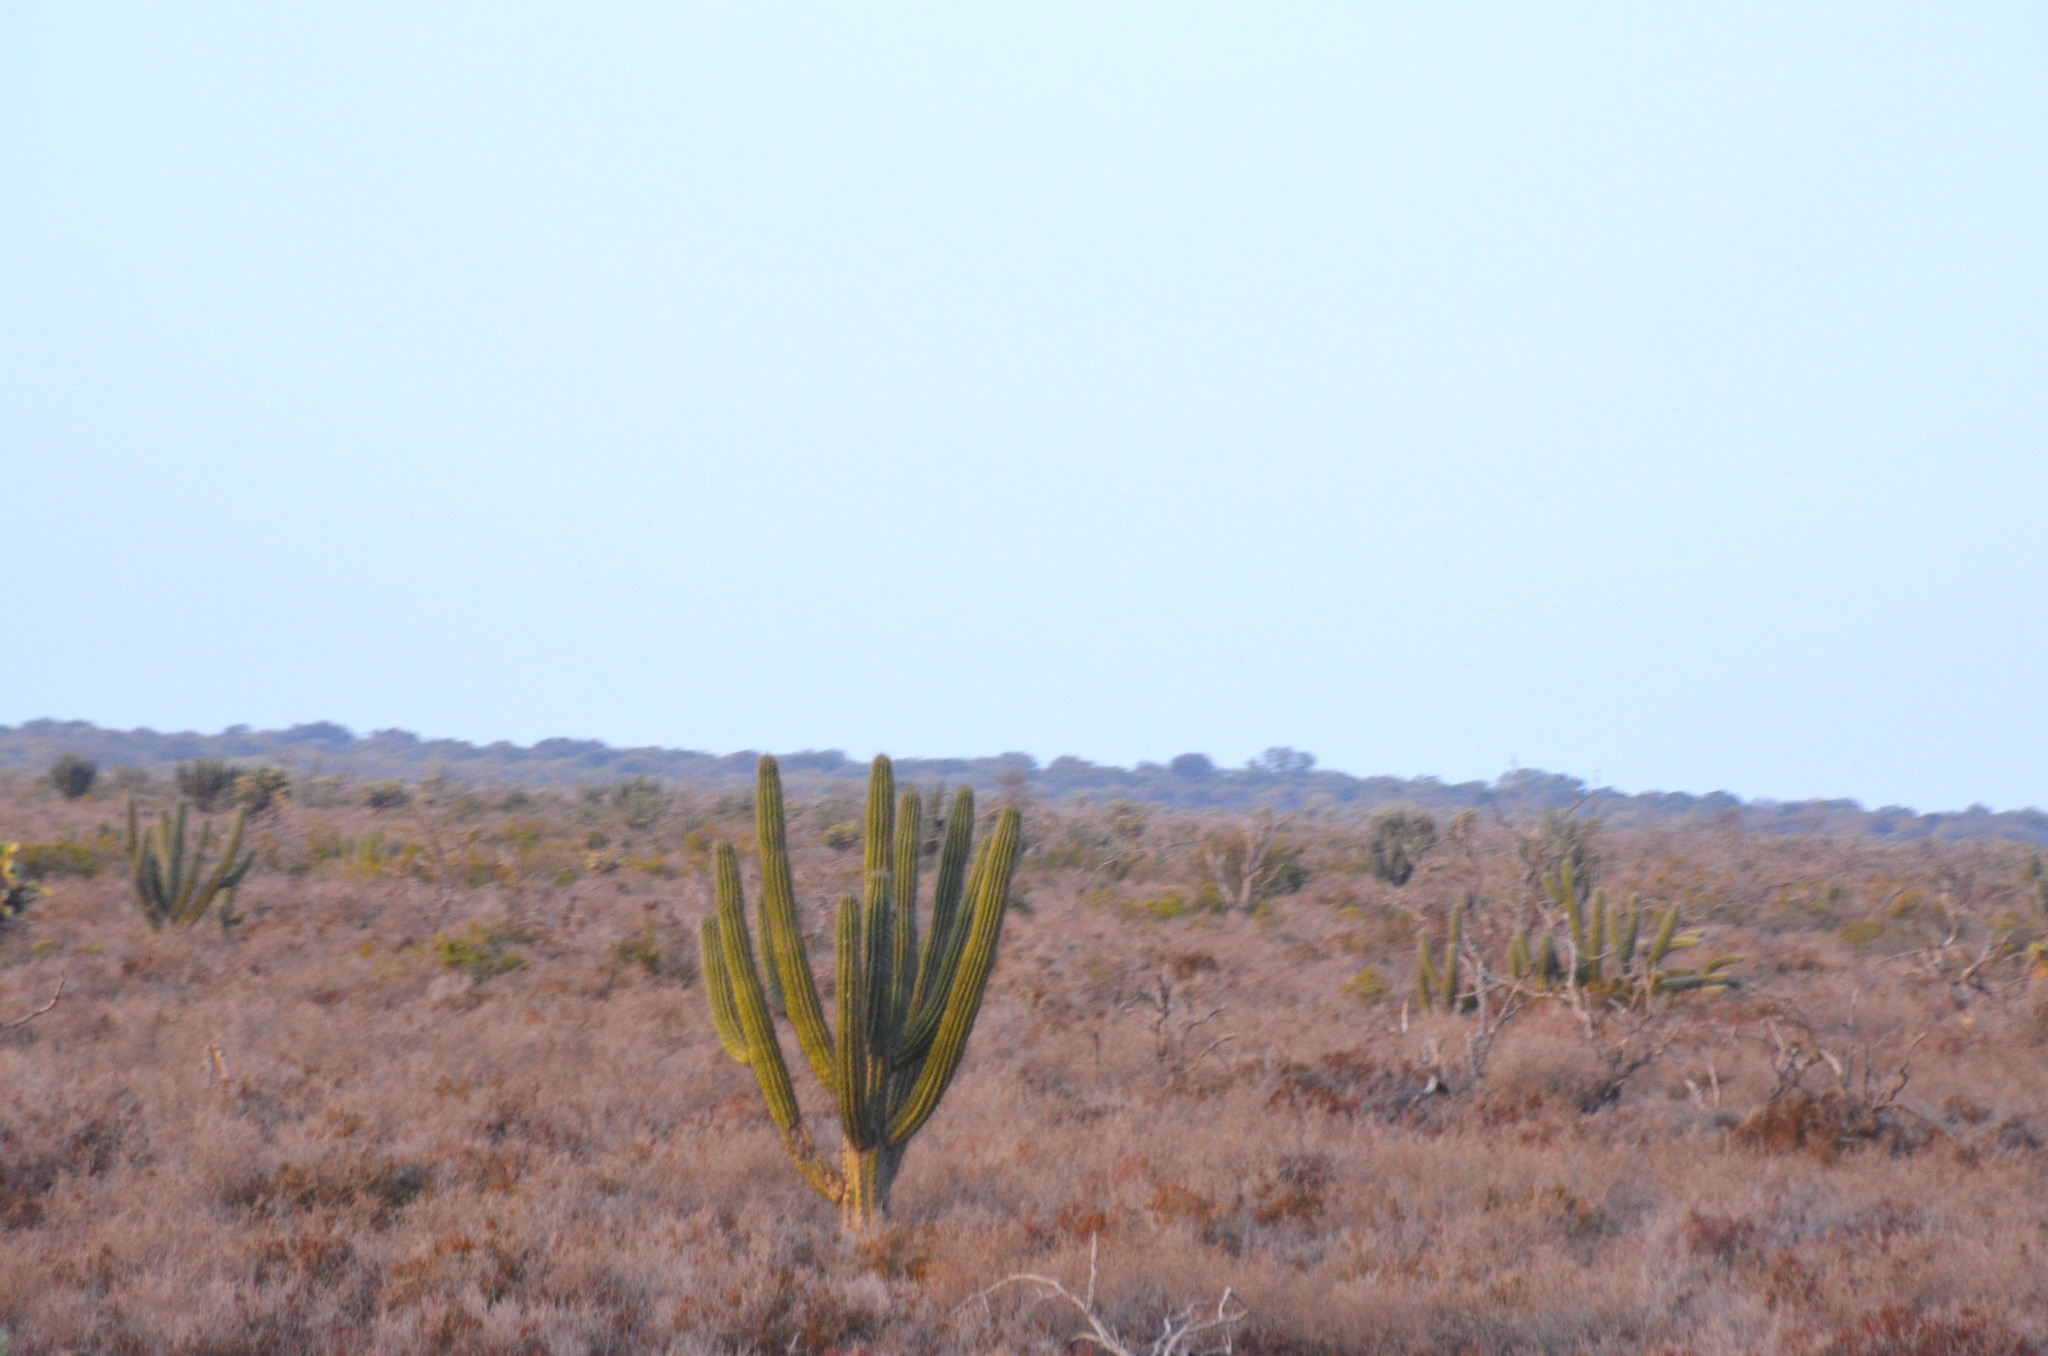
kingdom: Plantae
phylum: Tracheophyta
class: Magnoliopsida
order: Caryophyllales
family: Cactaceae
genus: Stetsonia
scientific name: Stetsonia coryne
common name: Toothpick cactus
